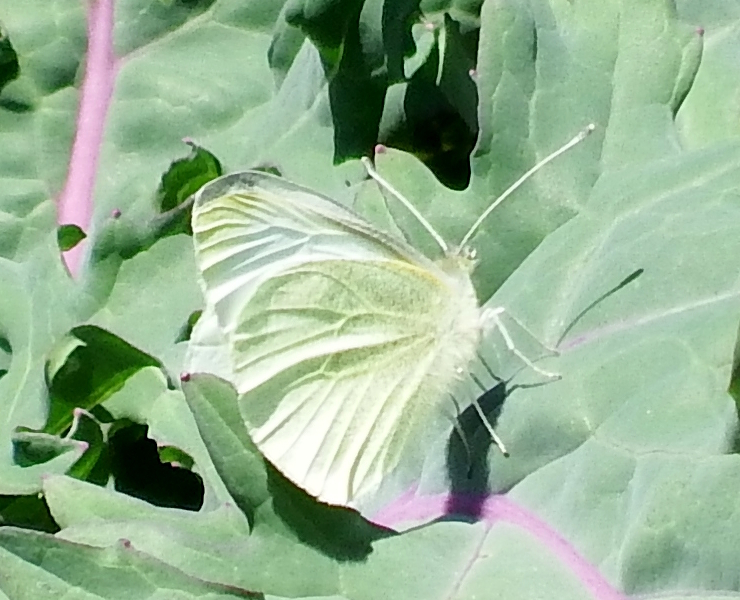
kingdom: Animalia
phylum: Arthropoda
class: Insecta
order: Lepidoptera
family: Pieridae
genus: Pieris
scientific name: Pieris rapae
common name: Small white
